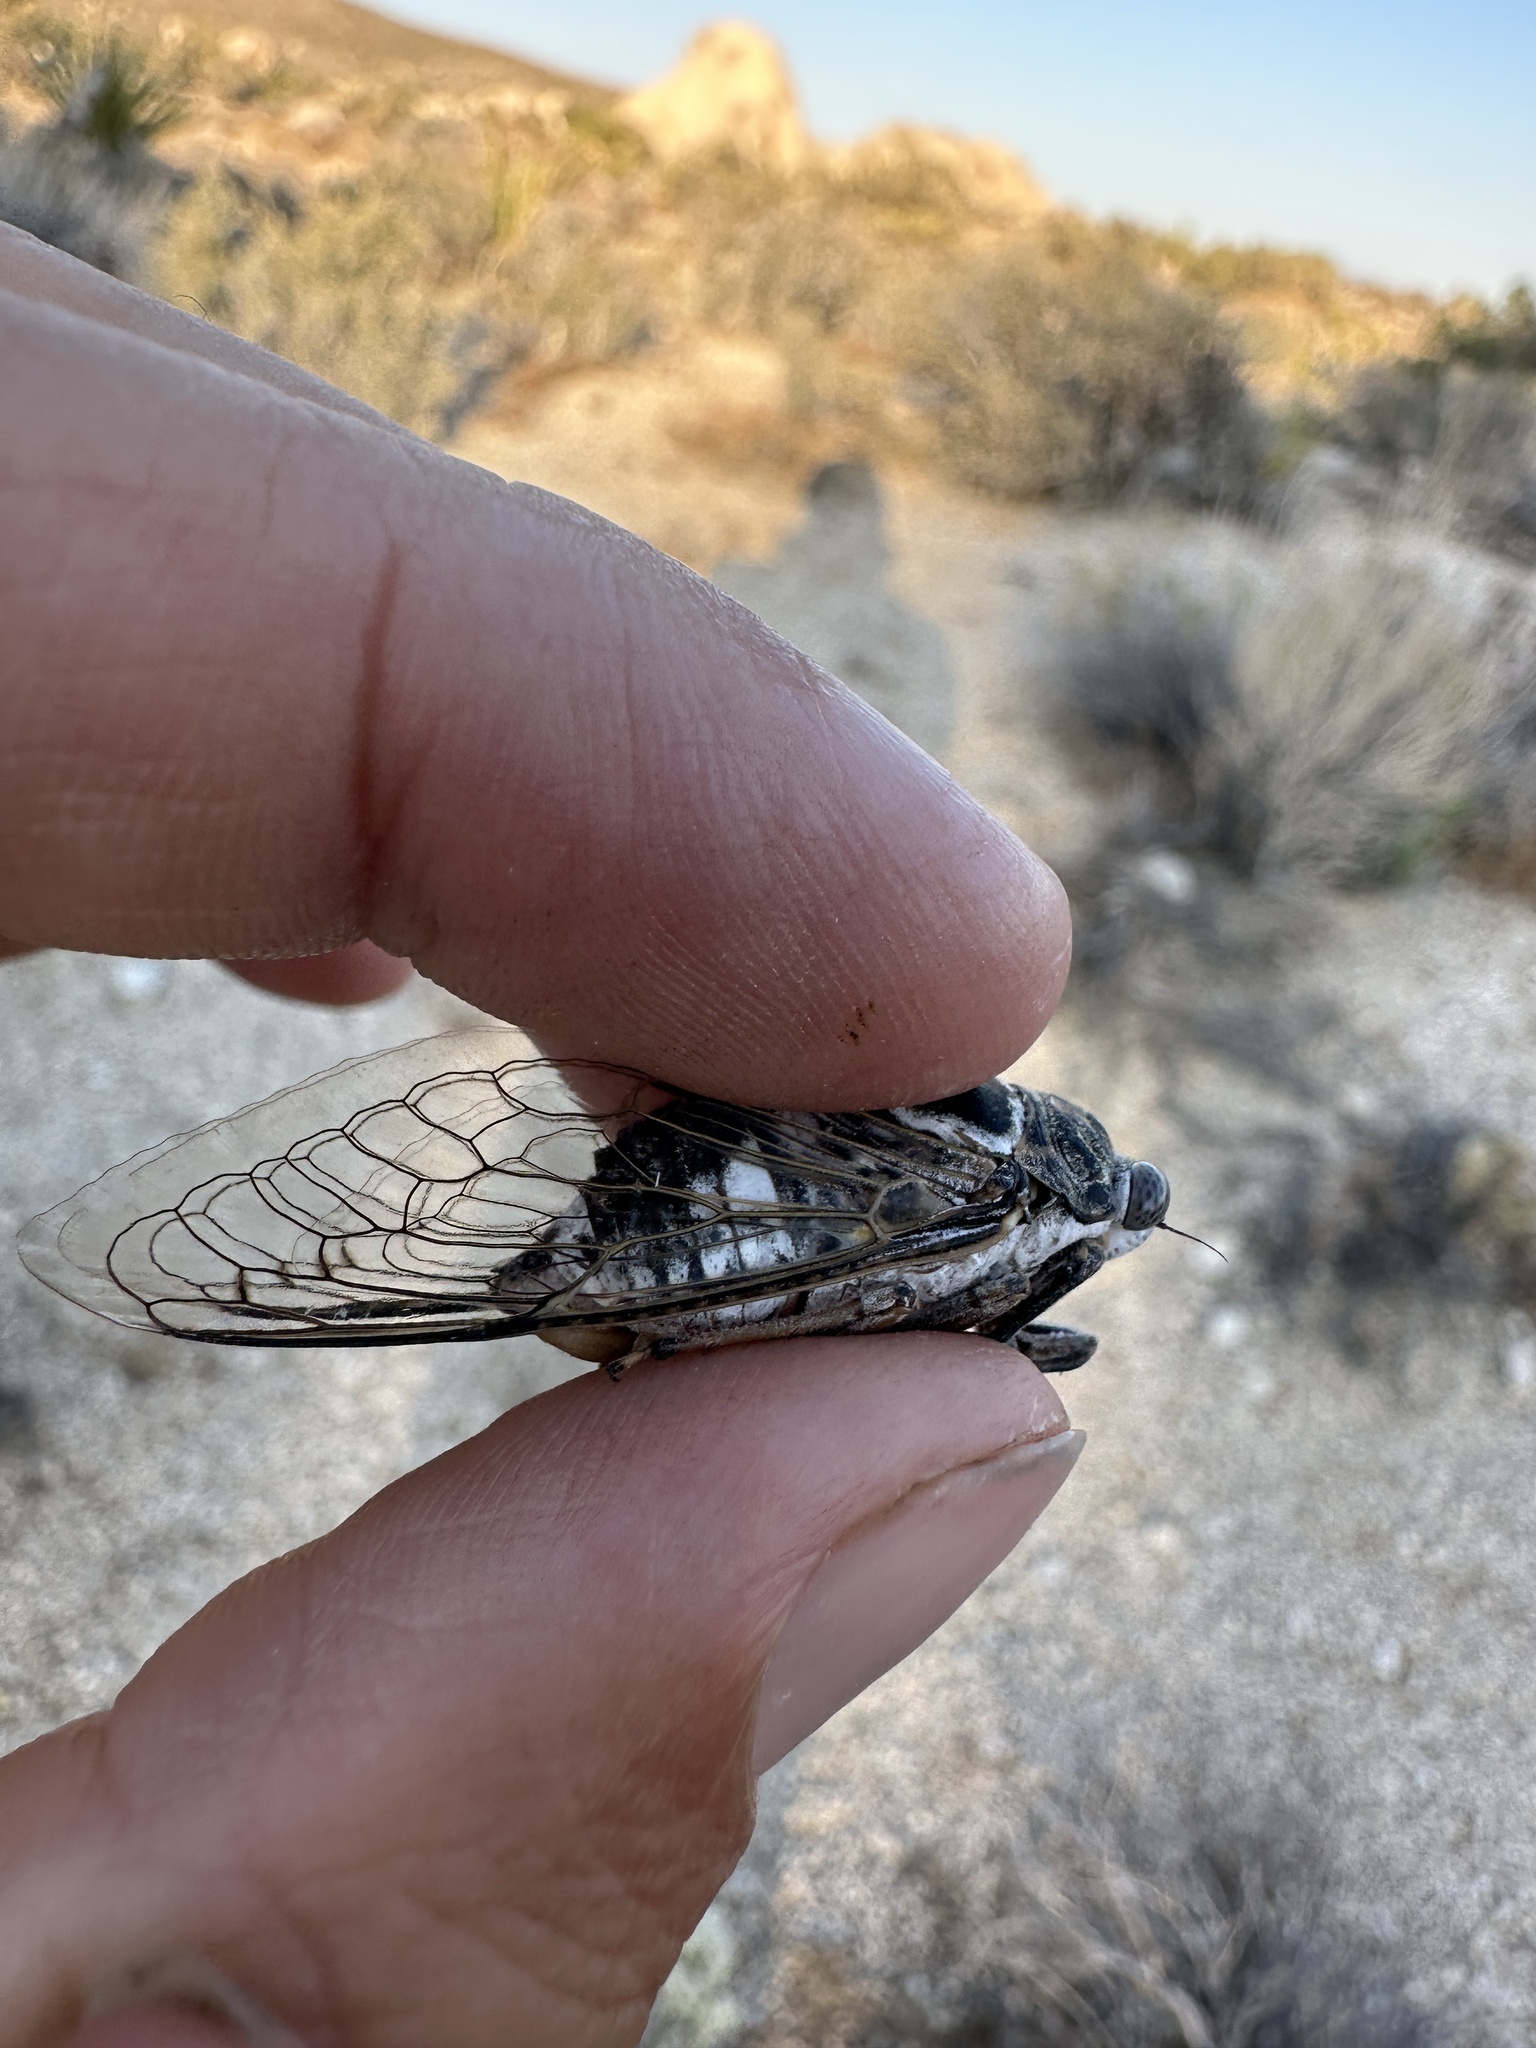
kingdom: Animalia
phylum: Arthropoda
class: Insecta
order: Hemiptera
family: Cicadidae
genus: Cacama
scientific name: Cacama valvata
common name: Cactus dodger
